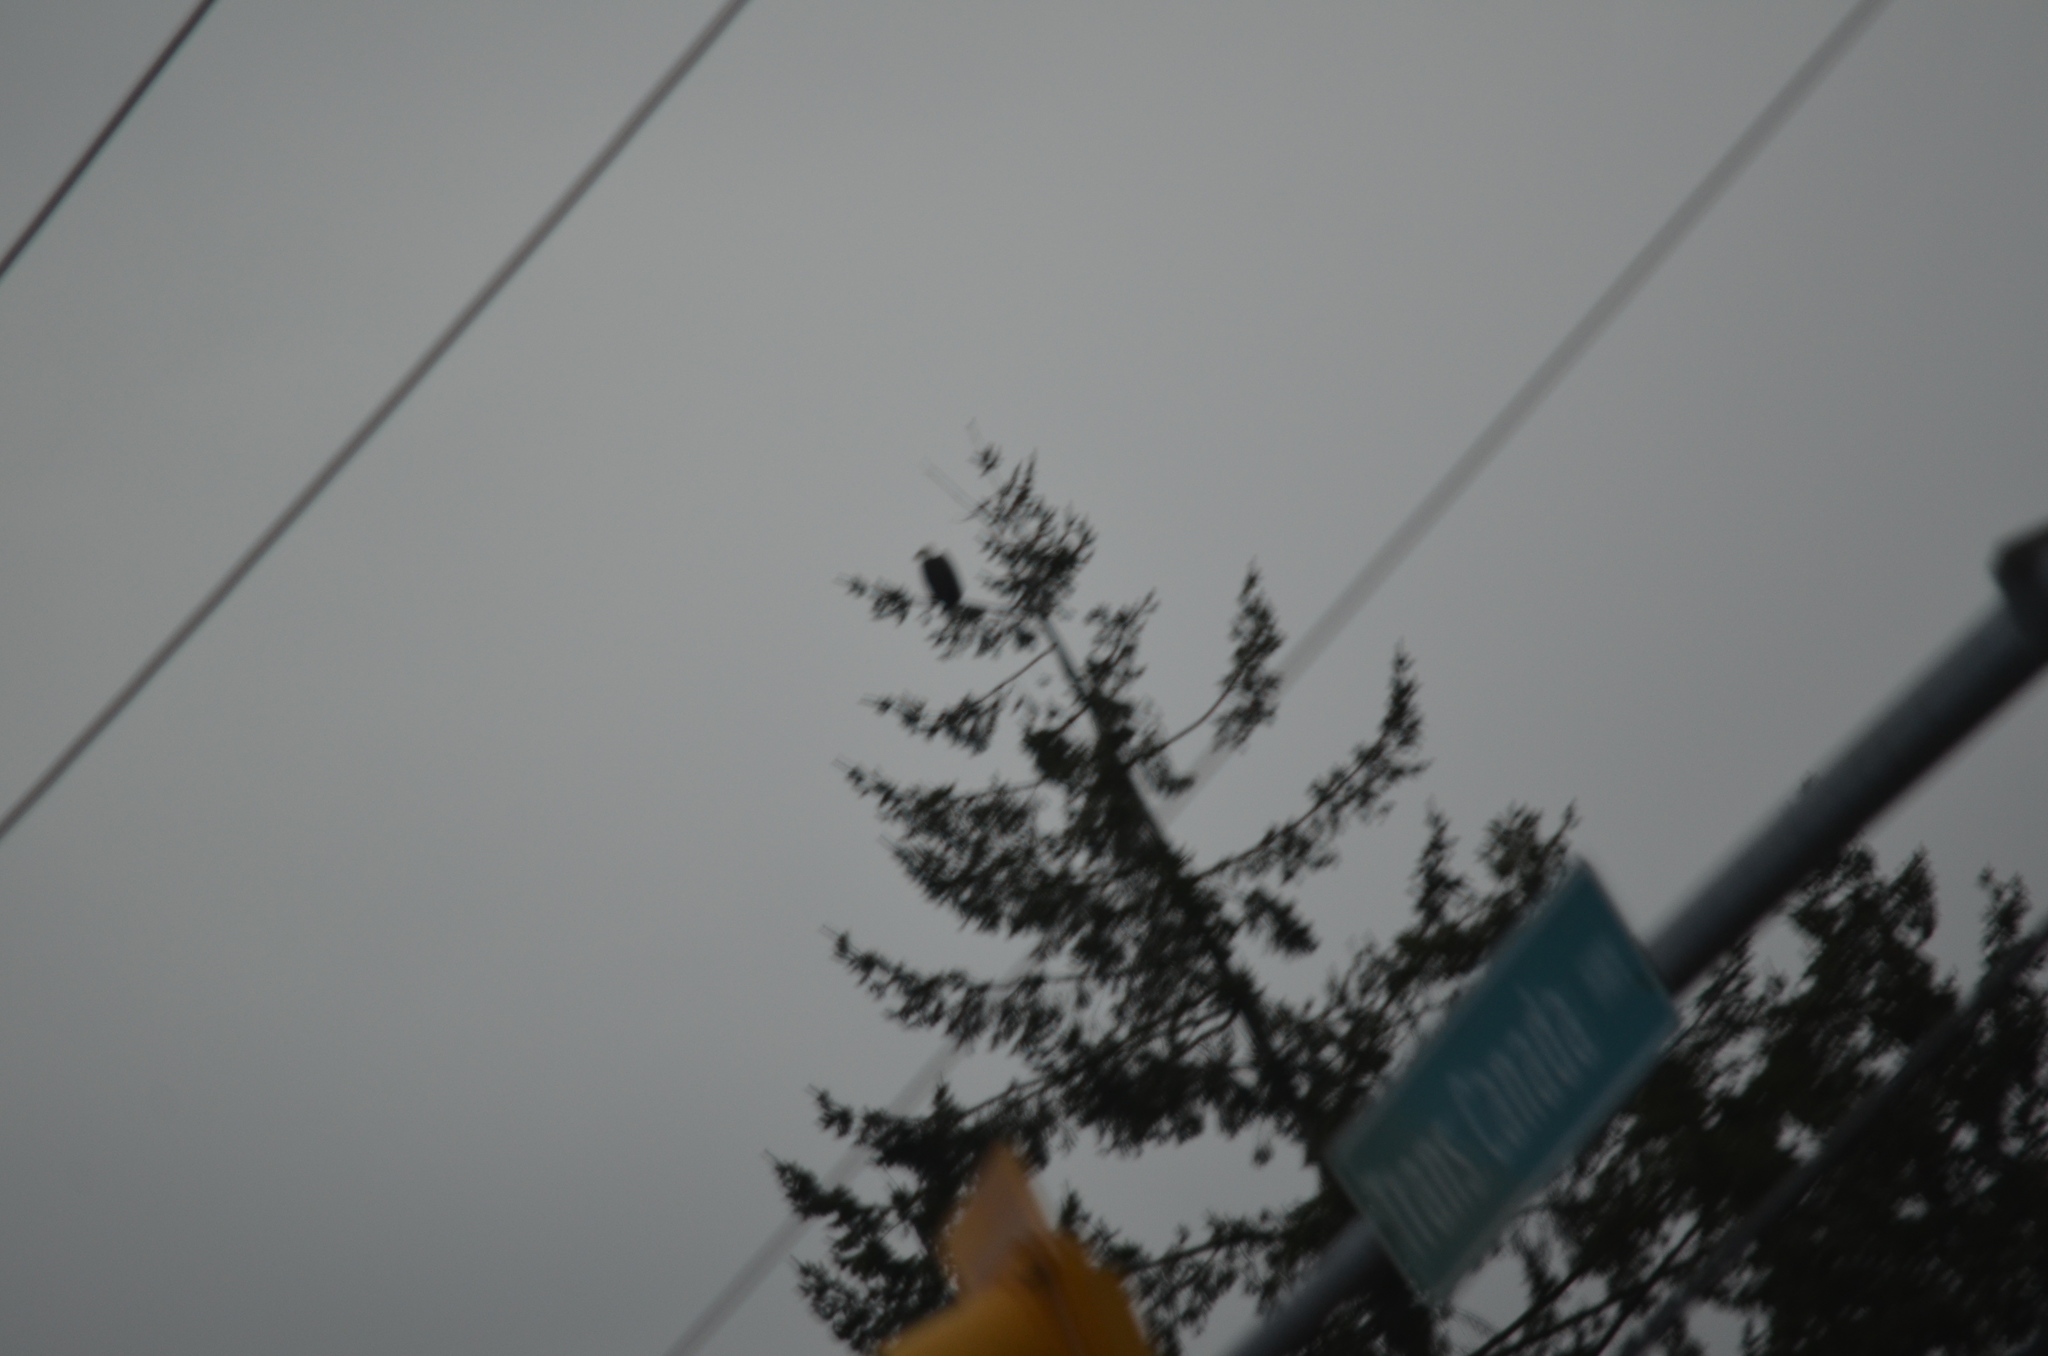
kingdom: Animalia
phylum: Chordata
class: Aves
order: Accipitriformes
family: Accipitridae
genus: Haliaeetus
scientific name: Haliaeetus leucocephalus
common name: Bald eagle
